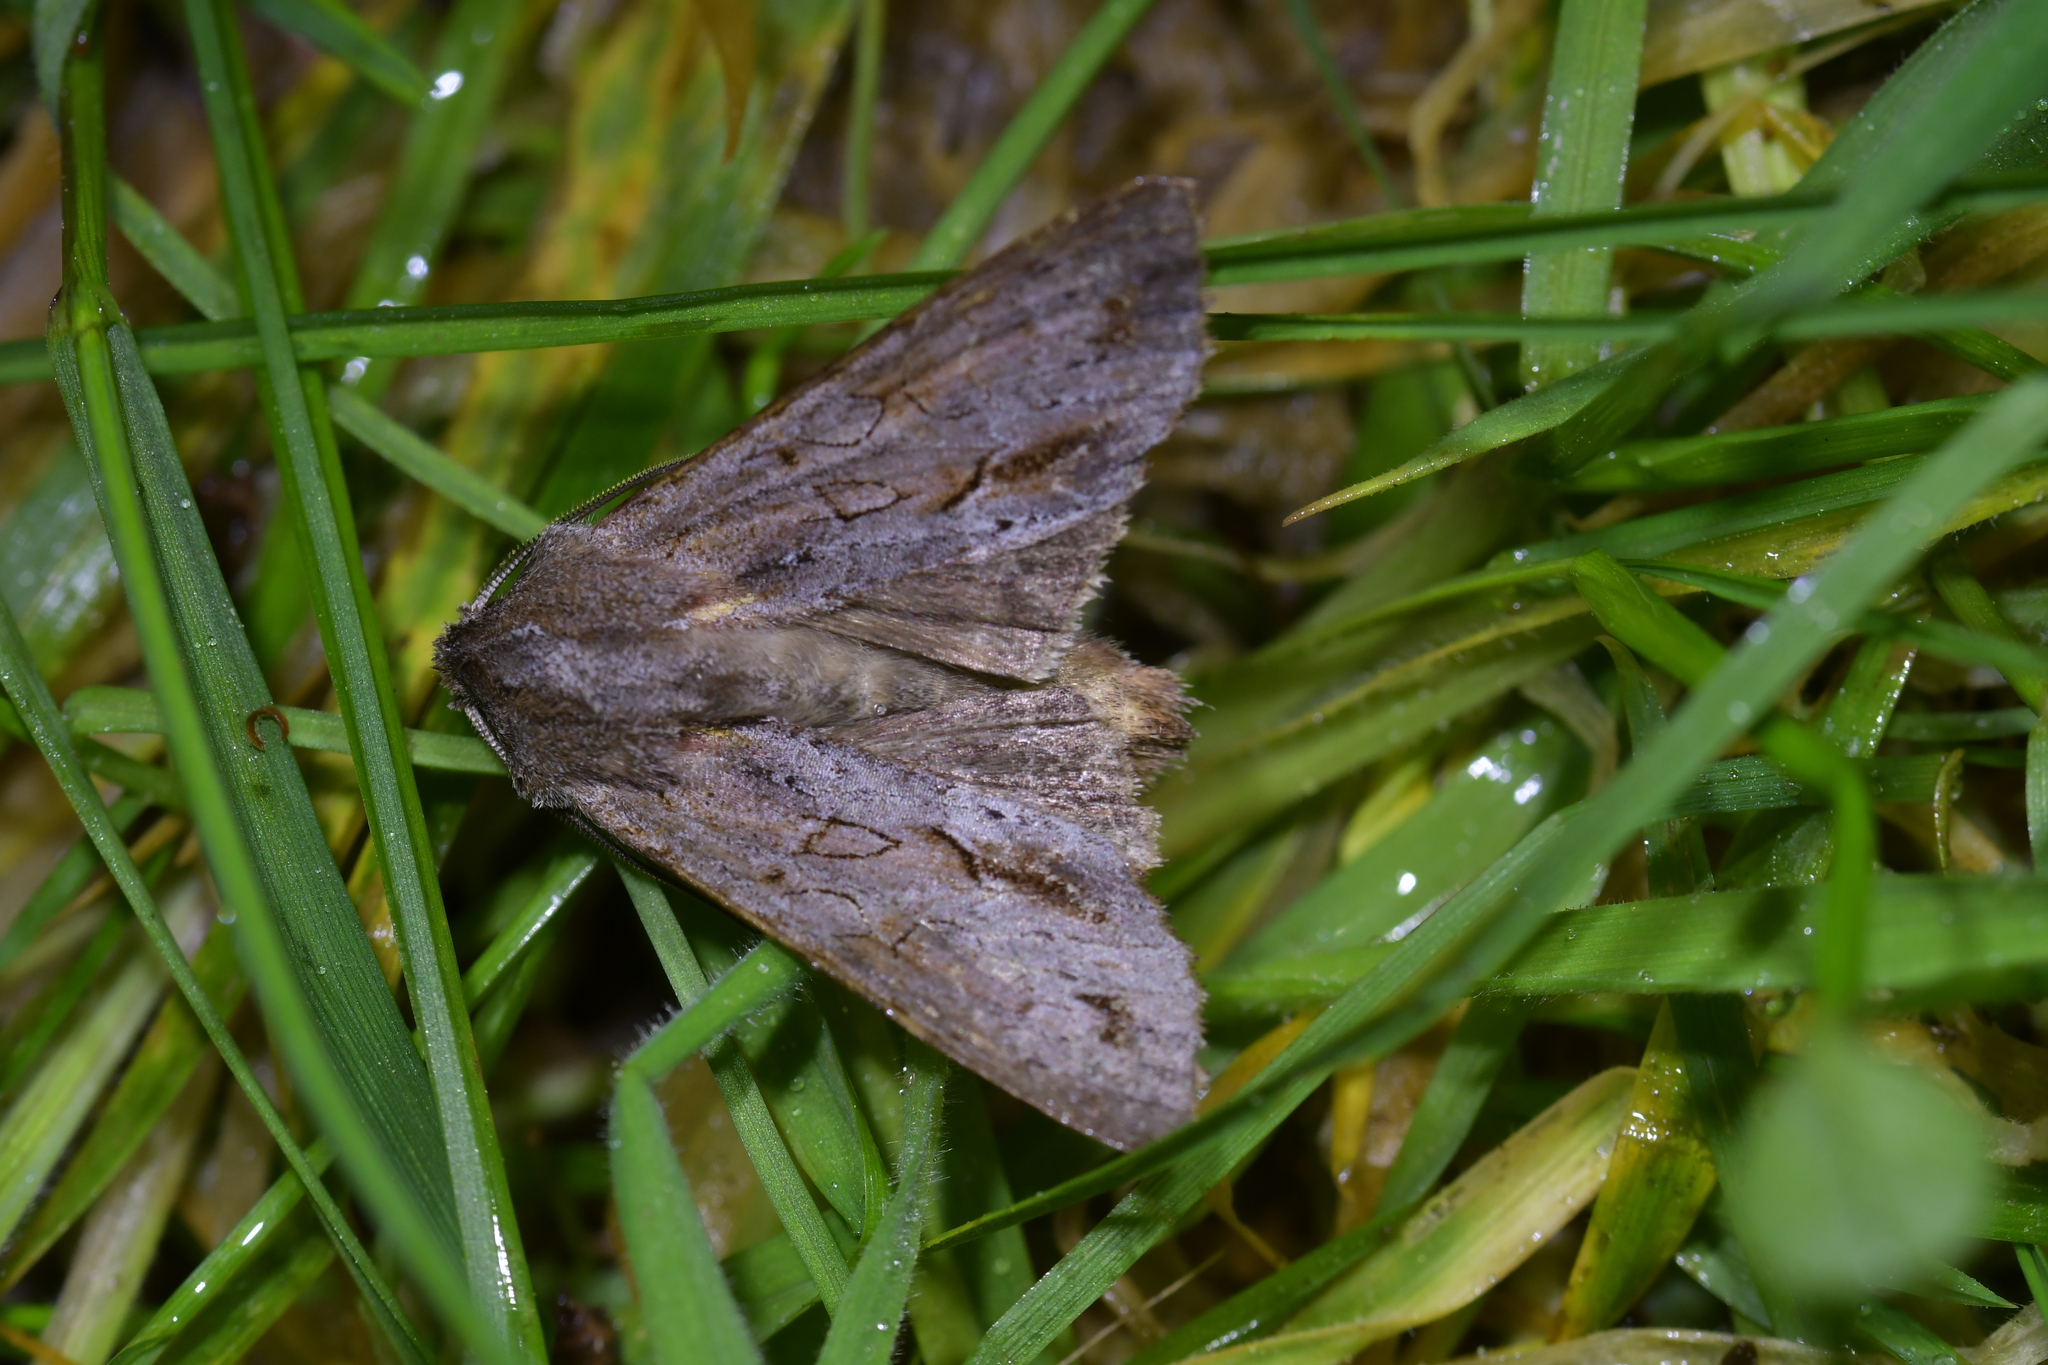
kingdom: Animalia
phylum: Arthropoda
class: Insecta
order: Lepidoptera
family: Noctuidae
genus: Ichneutica
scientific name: Ichneutica
